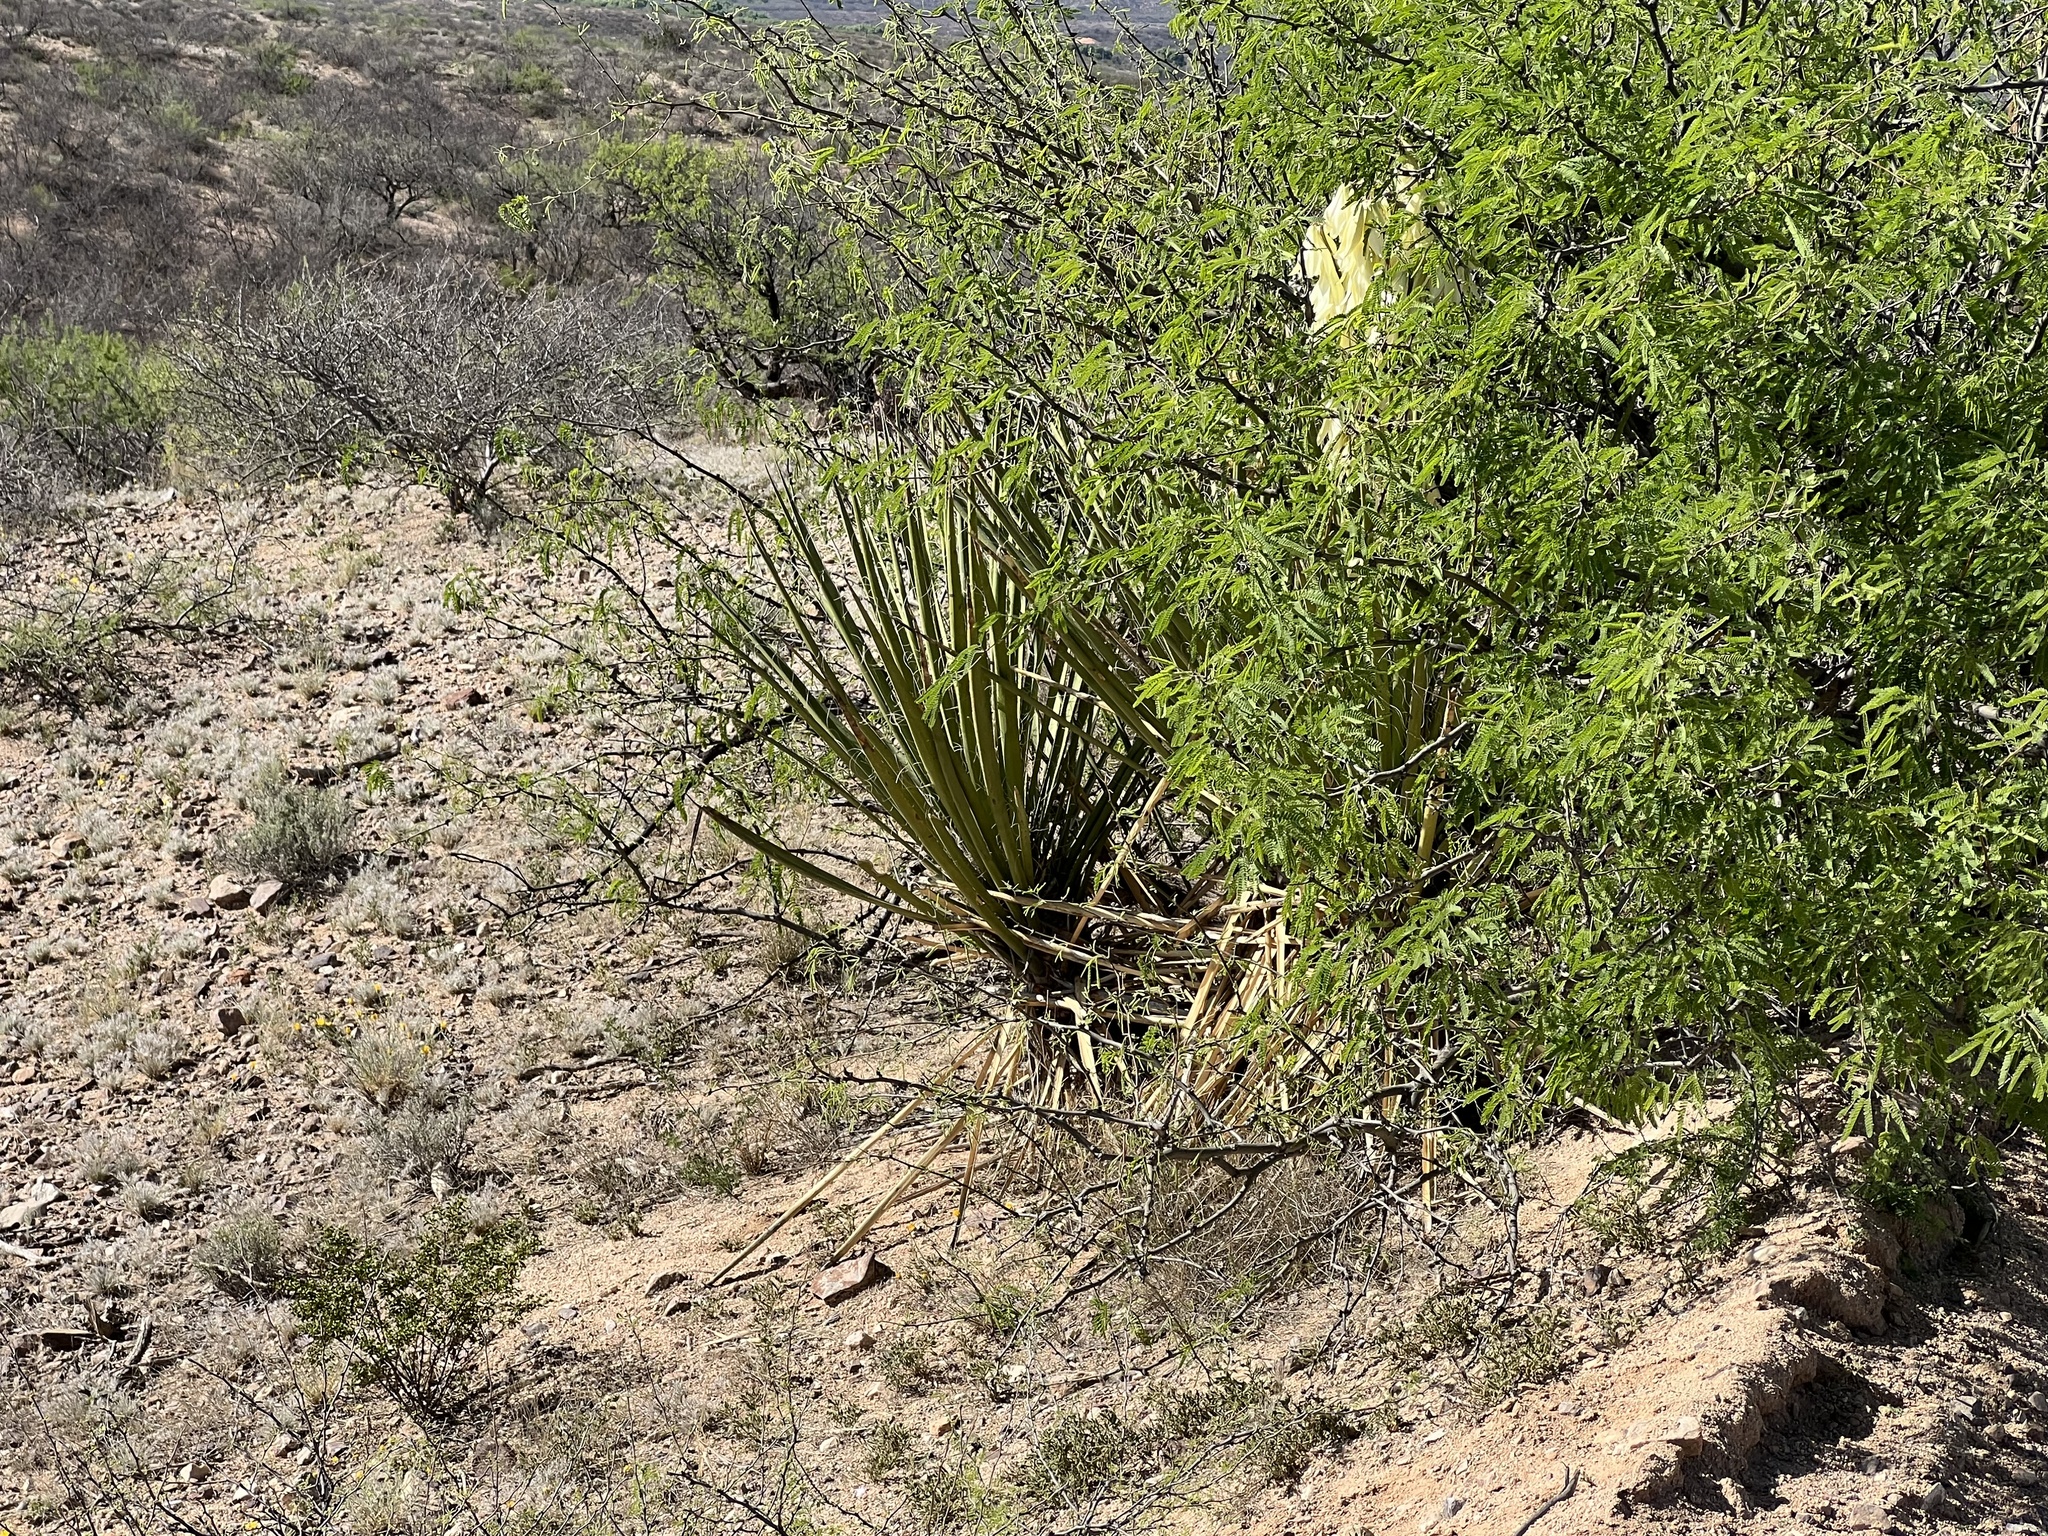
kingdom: Plantae
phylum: Tracheophyta
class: Liliopsida
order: Asparagales
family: Asparagaceae
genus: Yucca
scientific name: Yucca baccata
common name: Banana yucca
